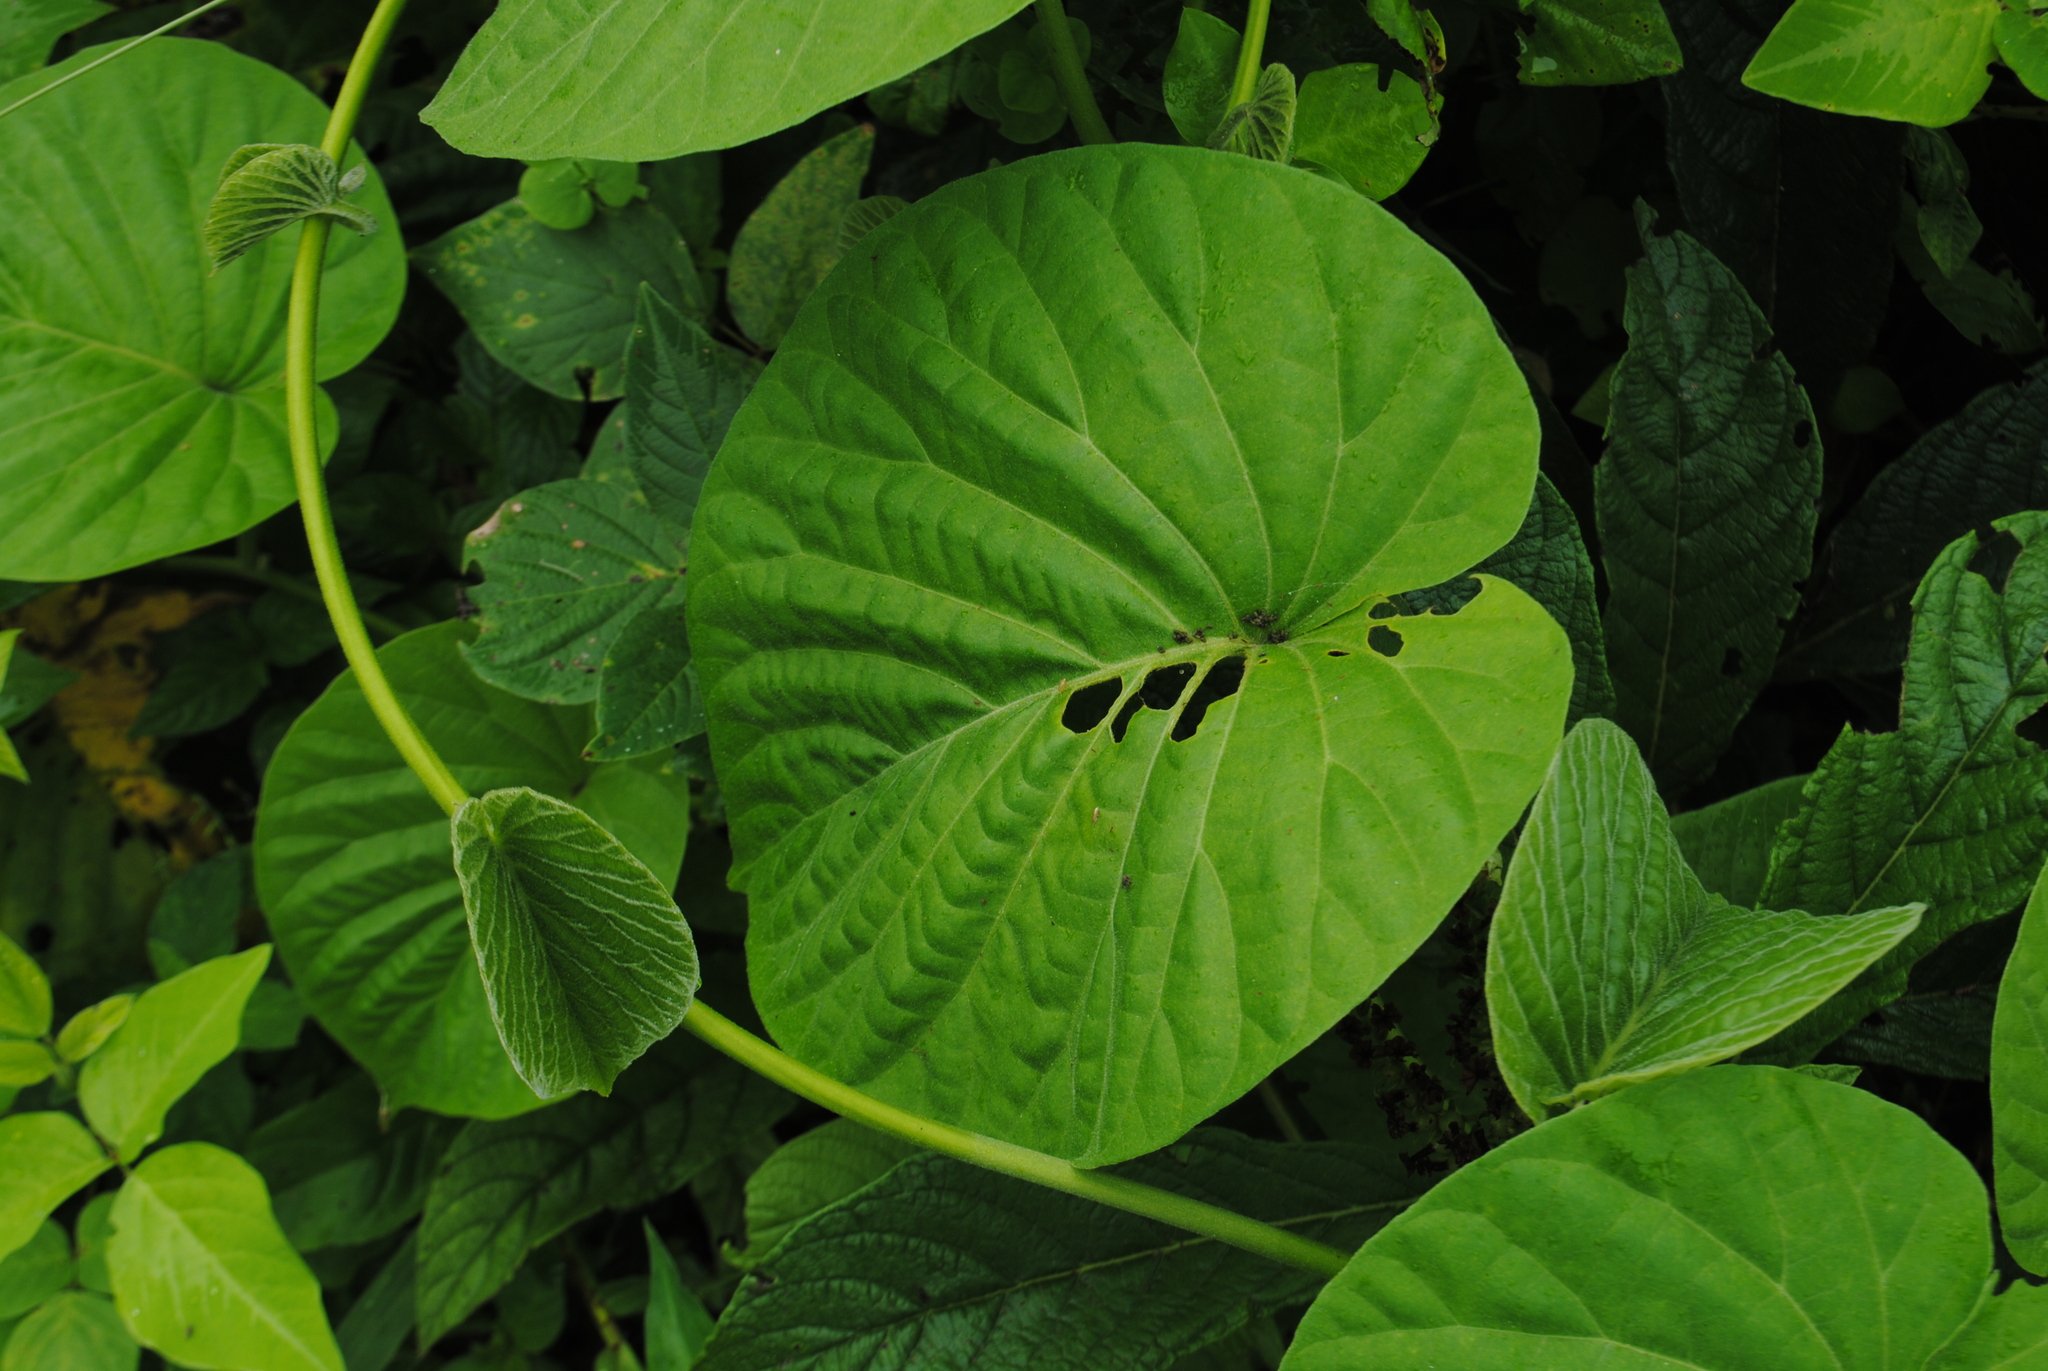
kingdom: Plantae
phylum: Tracheophyta
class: Magnoliopsida
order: Solanales
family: Convolvulaceae
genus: Stictocardia
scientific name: Stictocardia tiliifolia
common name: Spottedheart
